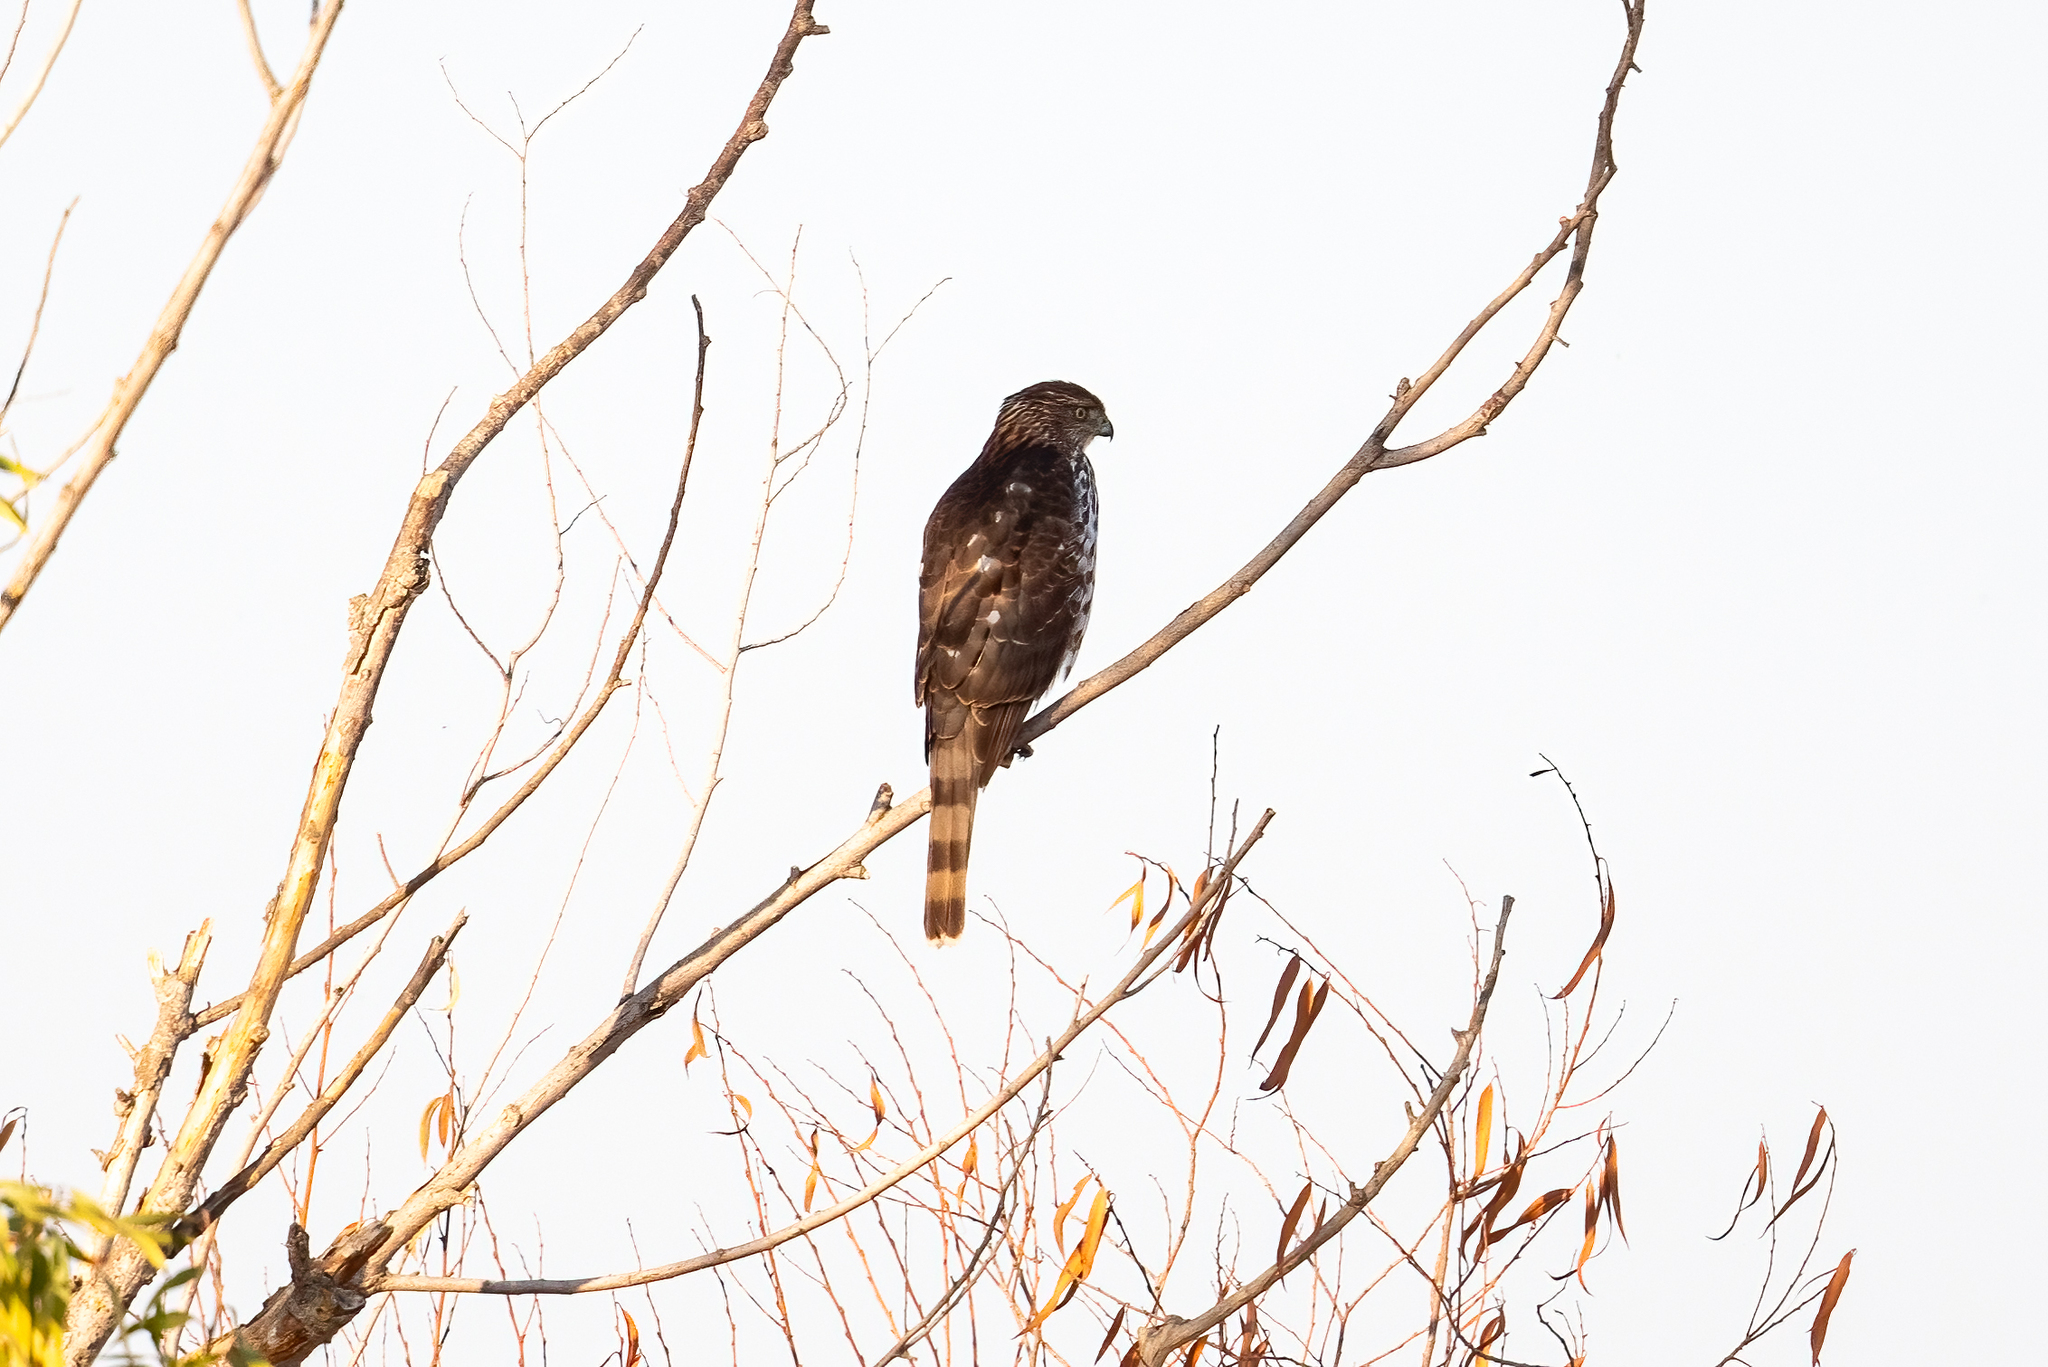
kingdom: Animalia
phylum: Chordata
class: Aves
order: Accipitriformes
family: Accipitridae
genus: Accipiter
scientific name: Accipiter cooperii
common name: Cooper's hawk
